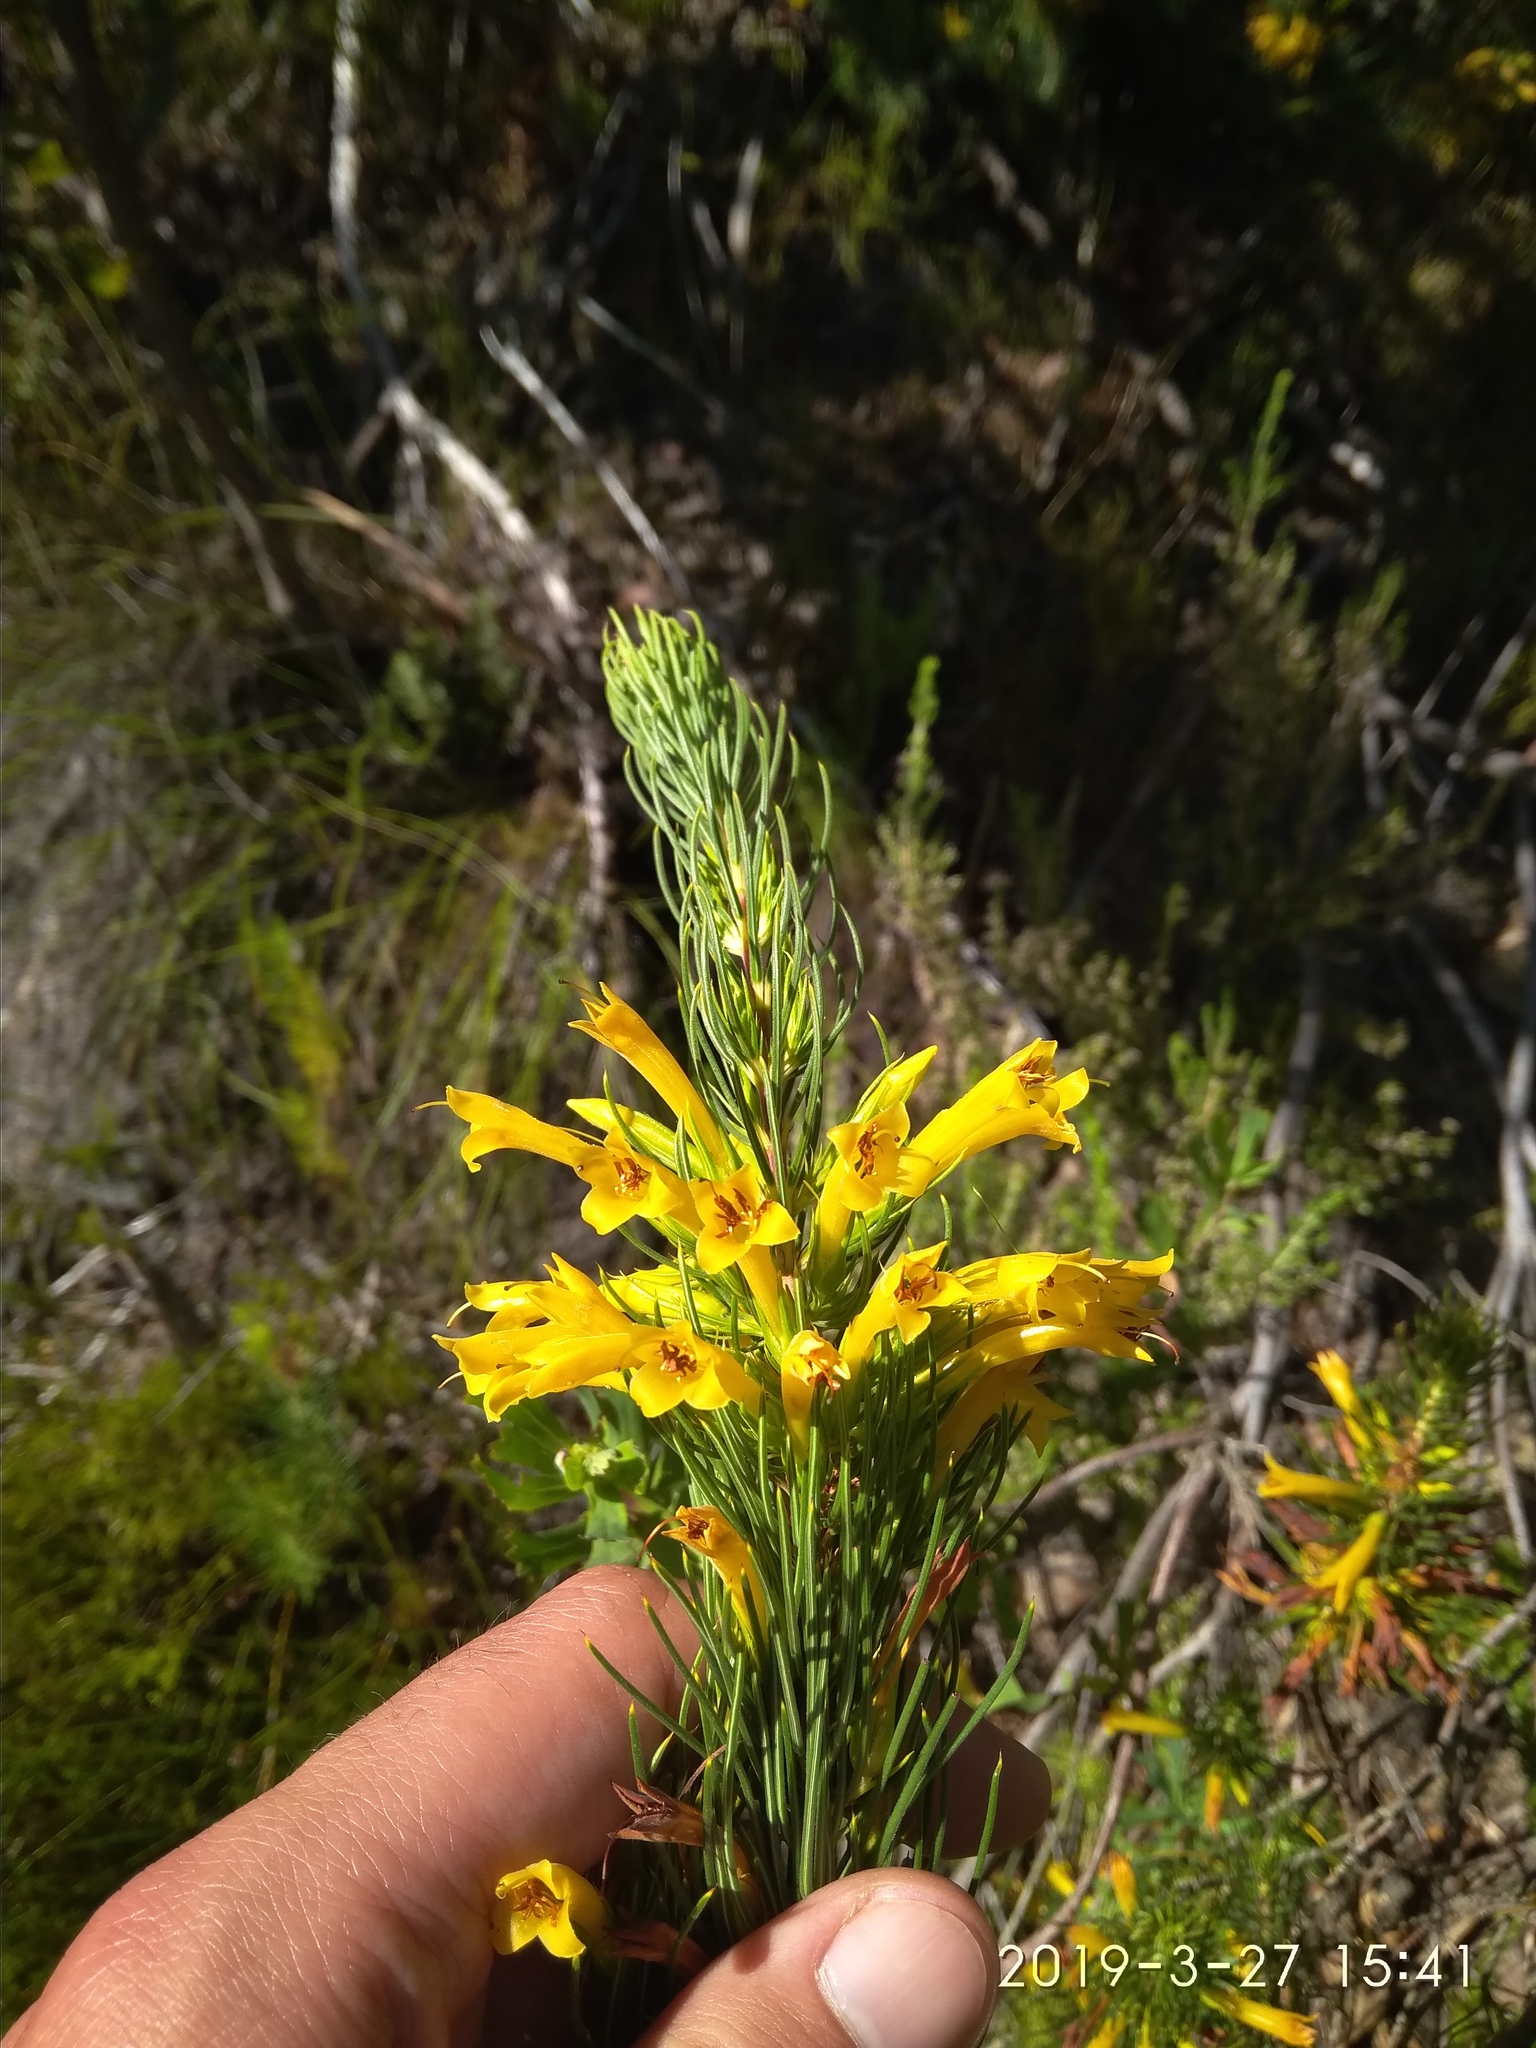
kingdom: Plantae
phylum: Tracheophyta
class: Magnoliopsida
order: Ericales
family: Ericaceae
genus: Erica
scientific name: Erica grandiflora
